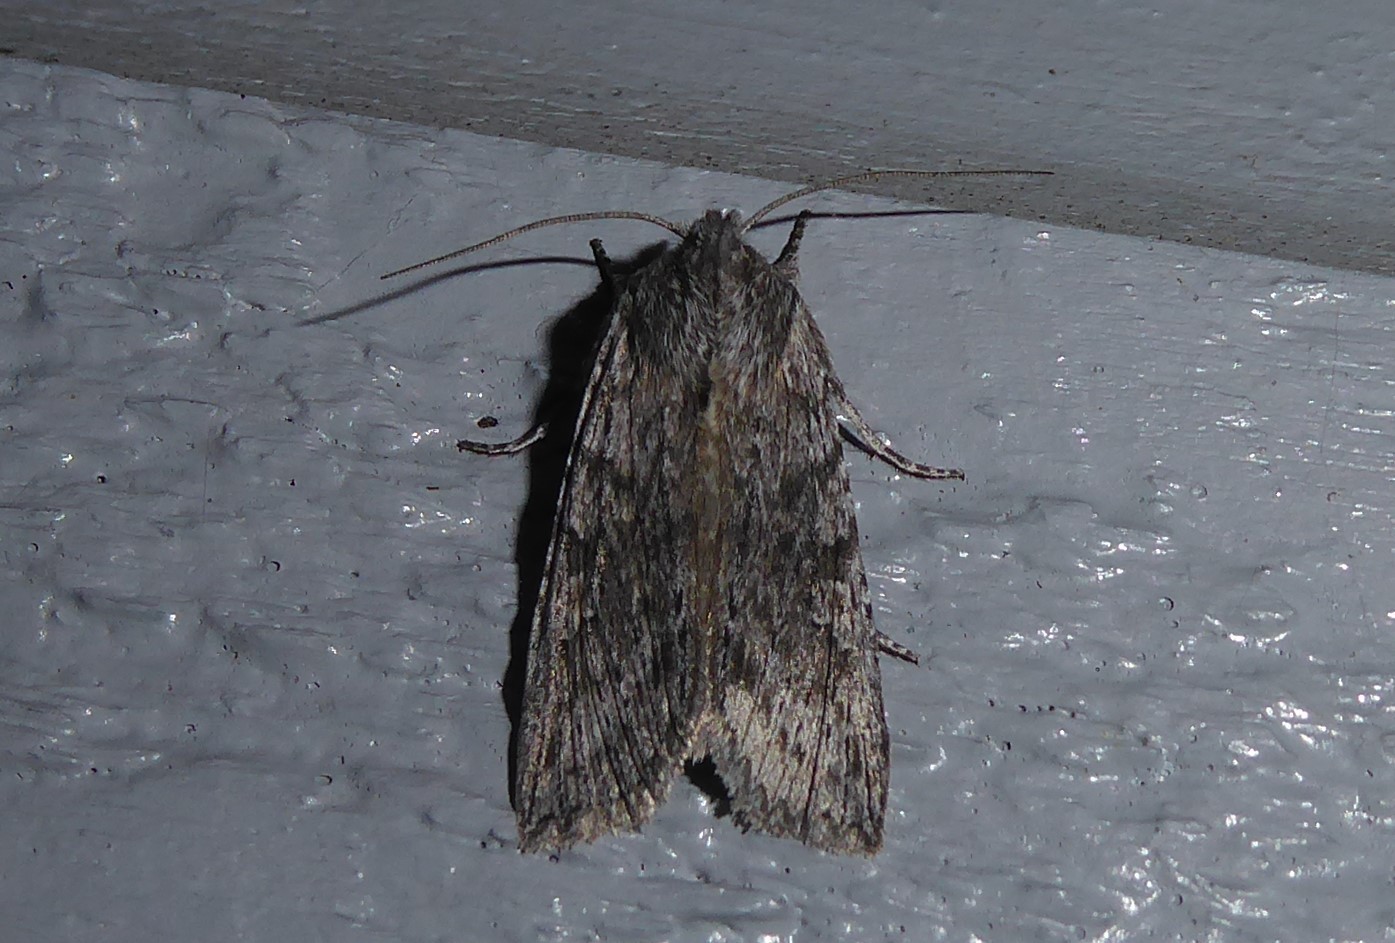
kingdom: Animalia
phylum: Arthropoda
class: Insecta
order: Lepidoptera
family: Noctuidae
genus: Physetica
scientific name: Physetica phricias
